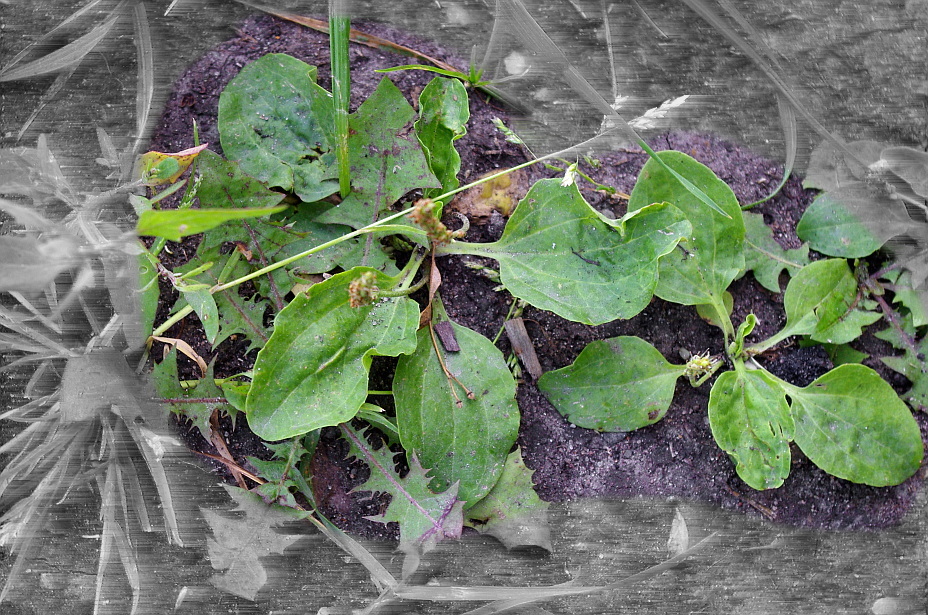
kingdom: Plantae
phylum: Tracheophyta
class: Magnoliopsida
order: Lamiales
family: Plantaginaceae
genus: Plantago
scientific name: Plantago major
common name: Common plantain
